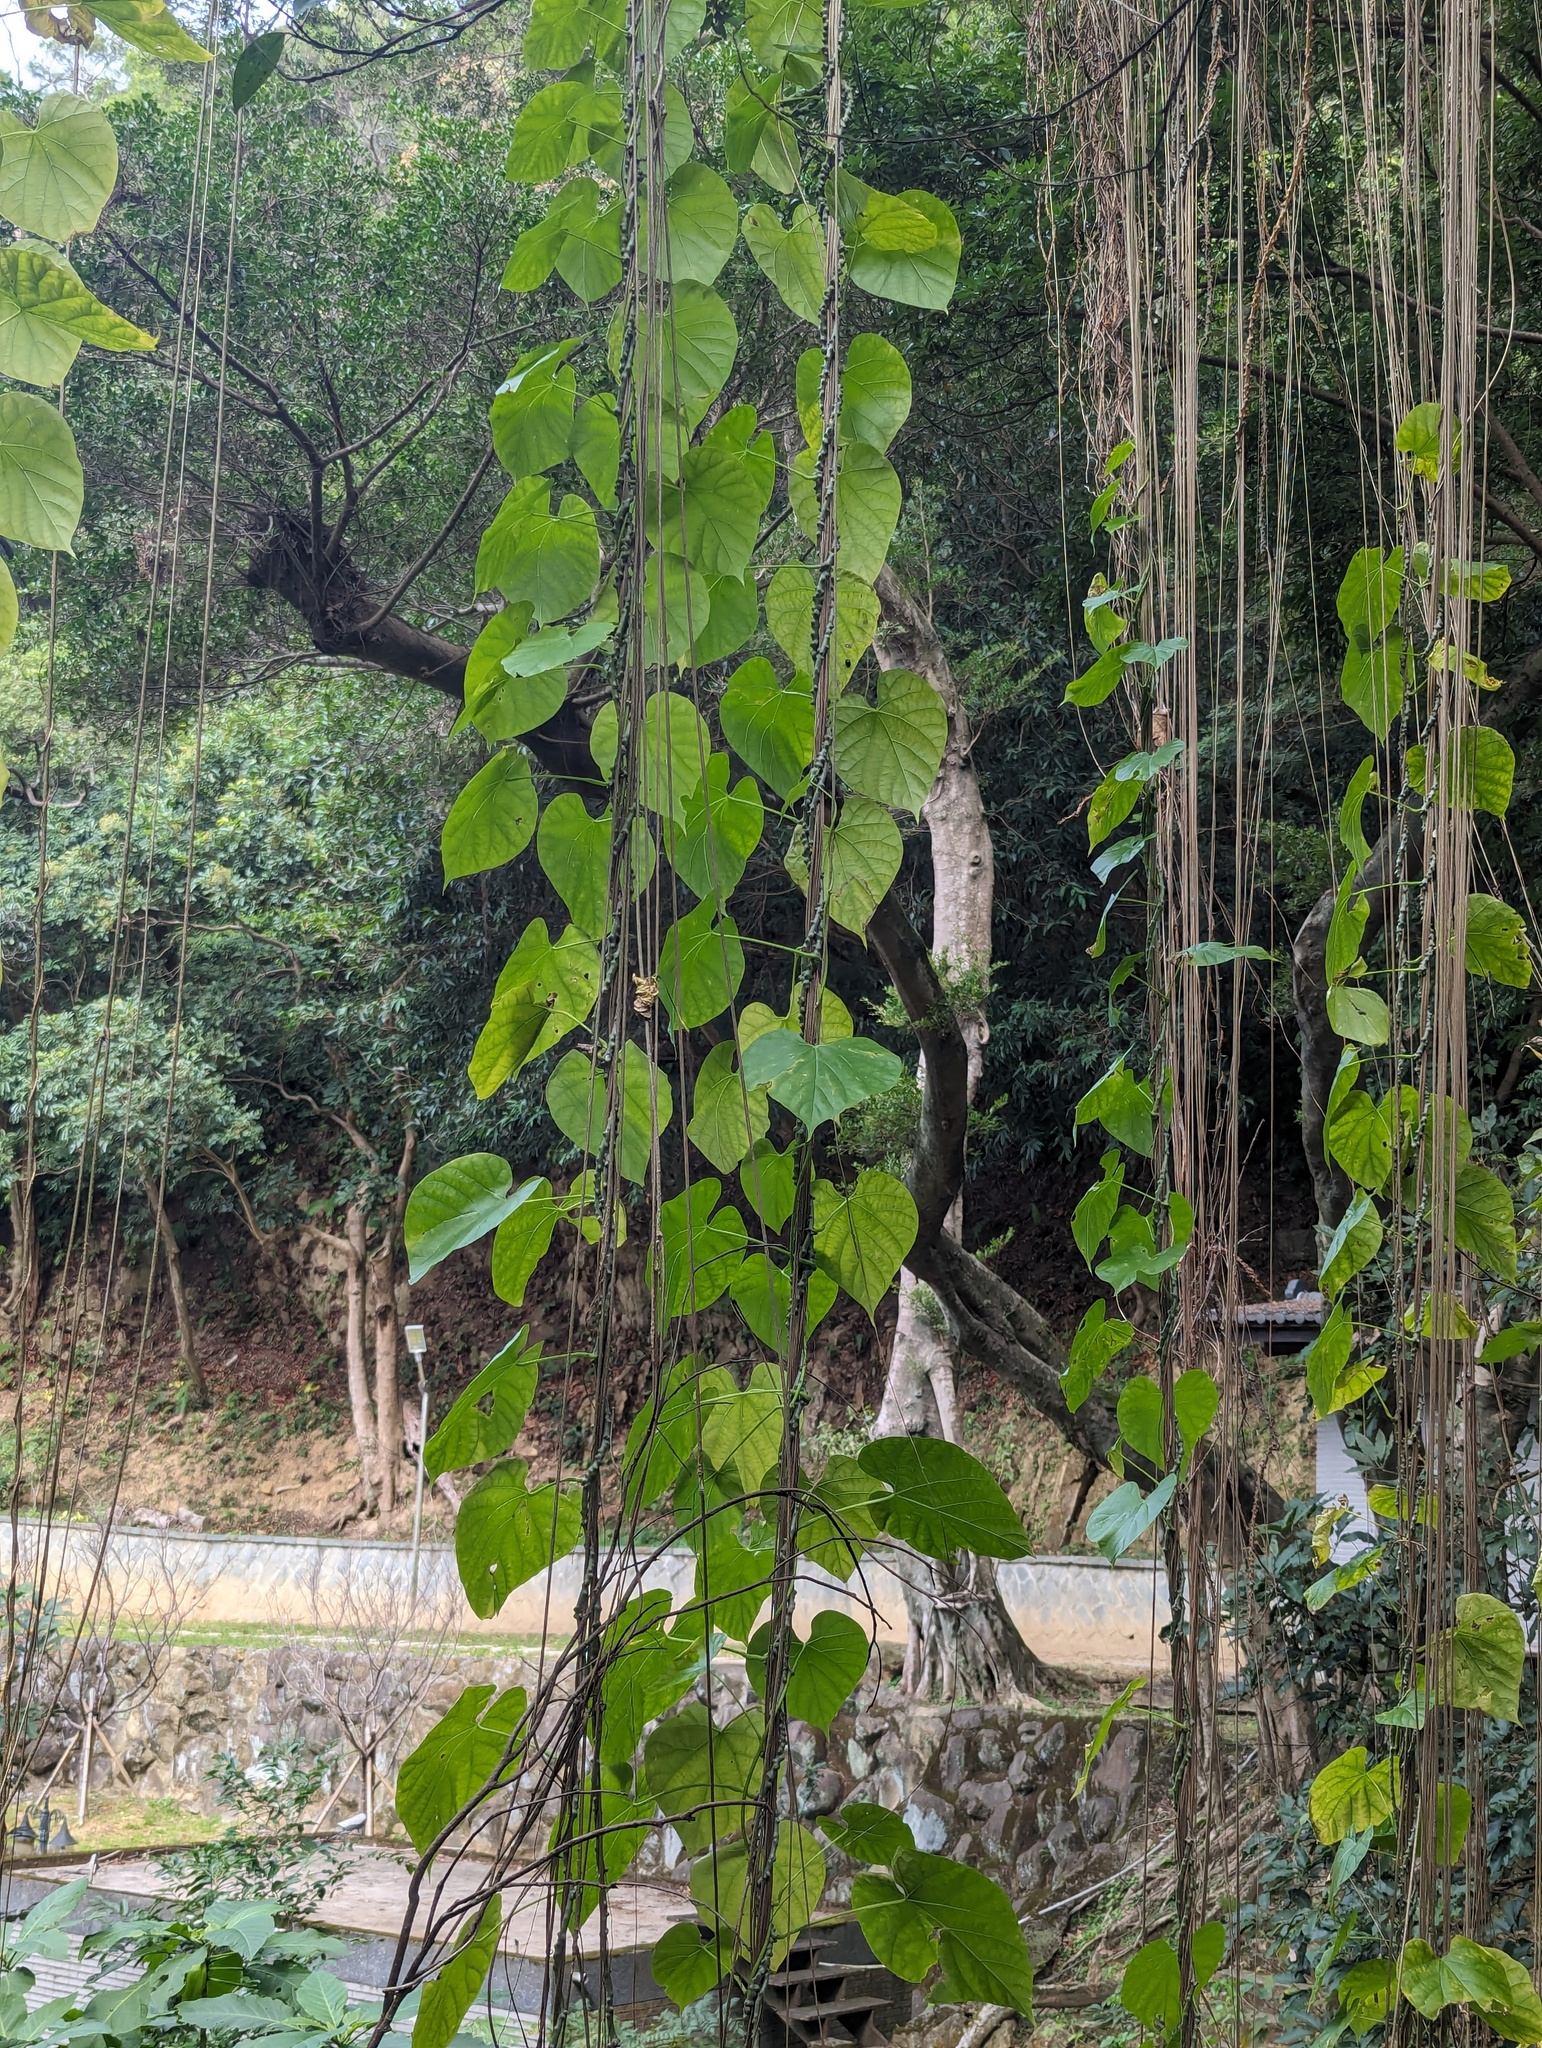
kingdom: Plantae
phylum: Tracheophyta
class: Magnoliopsida
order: Ranunculales
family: Menispermaceae
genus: Tinospora
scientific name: Tinospora crispa
